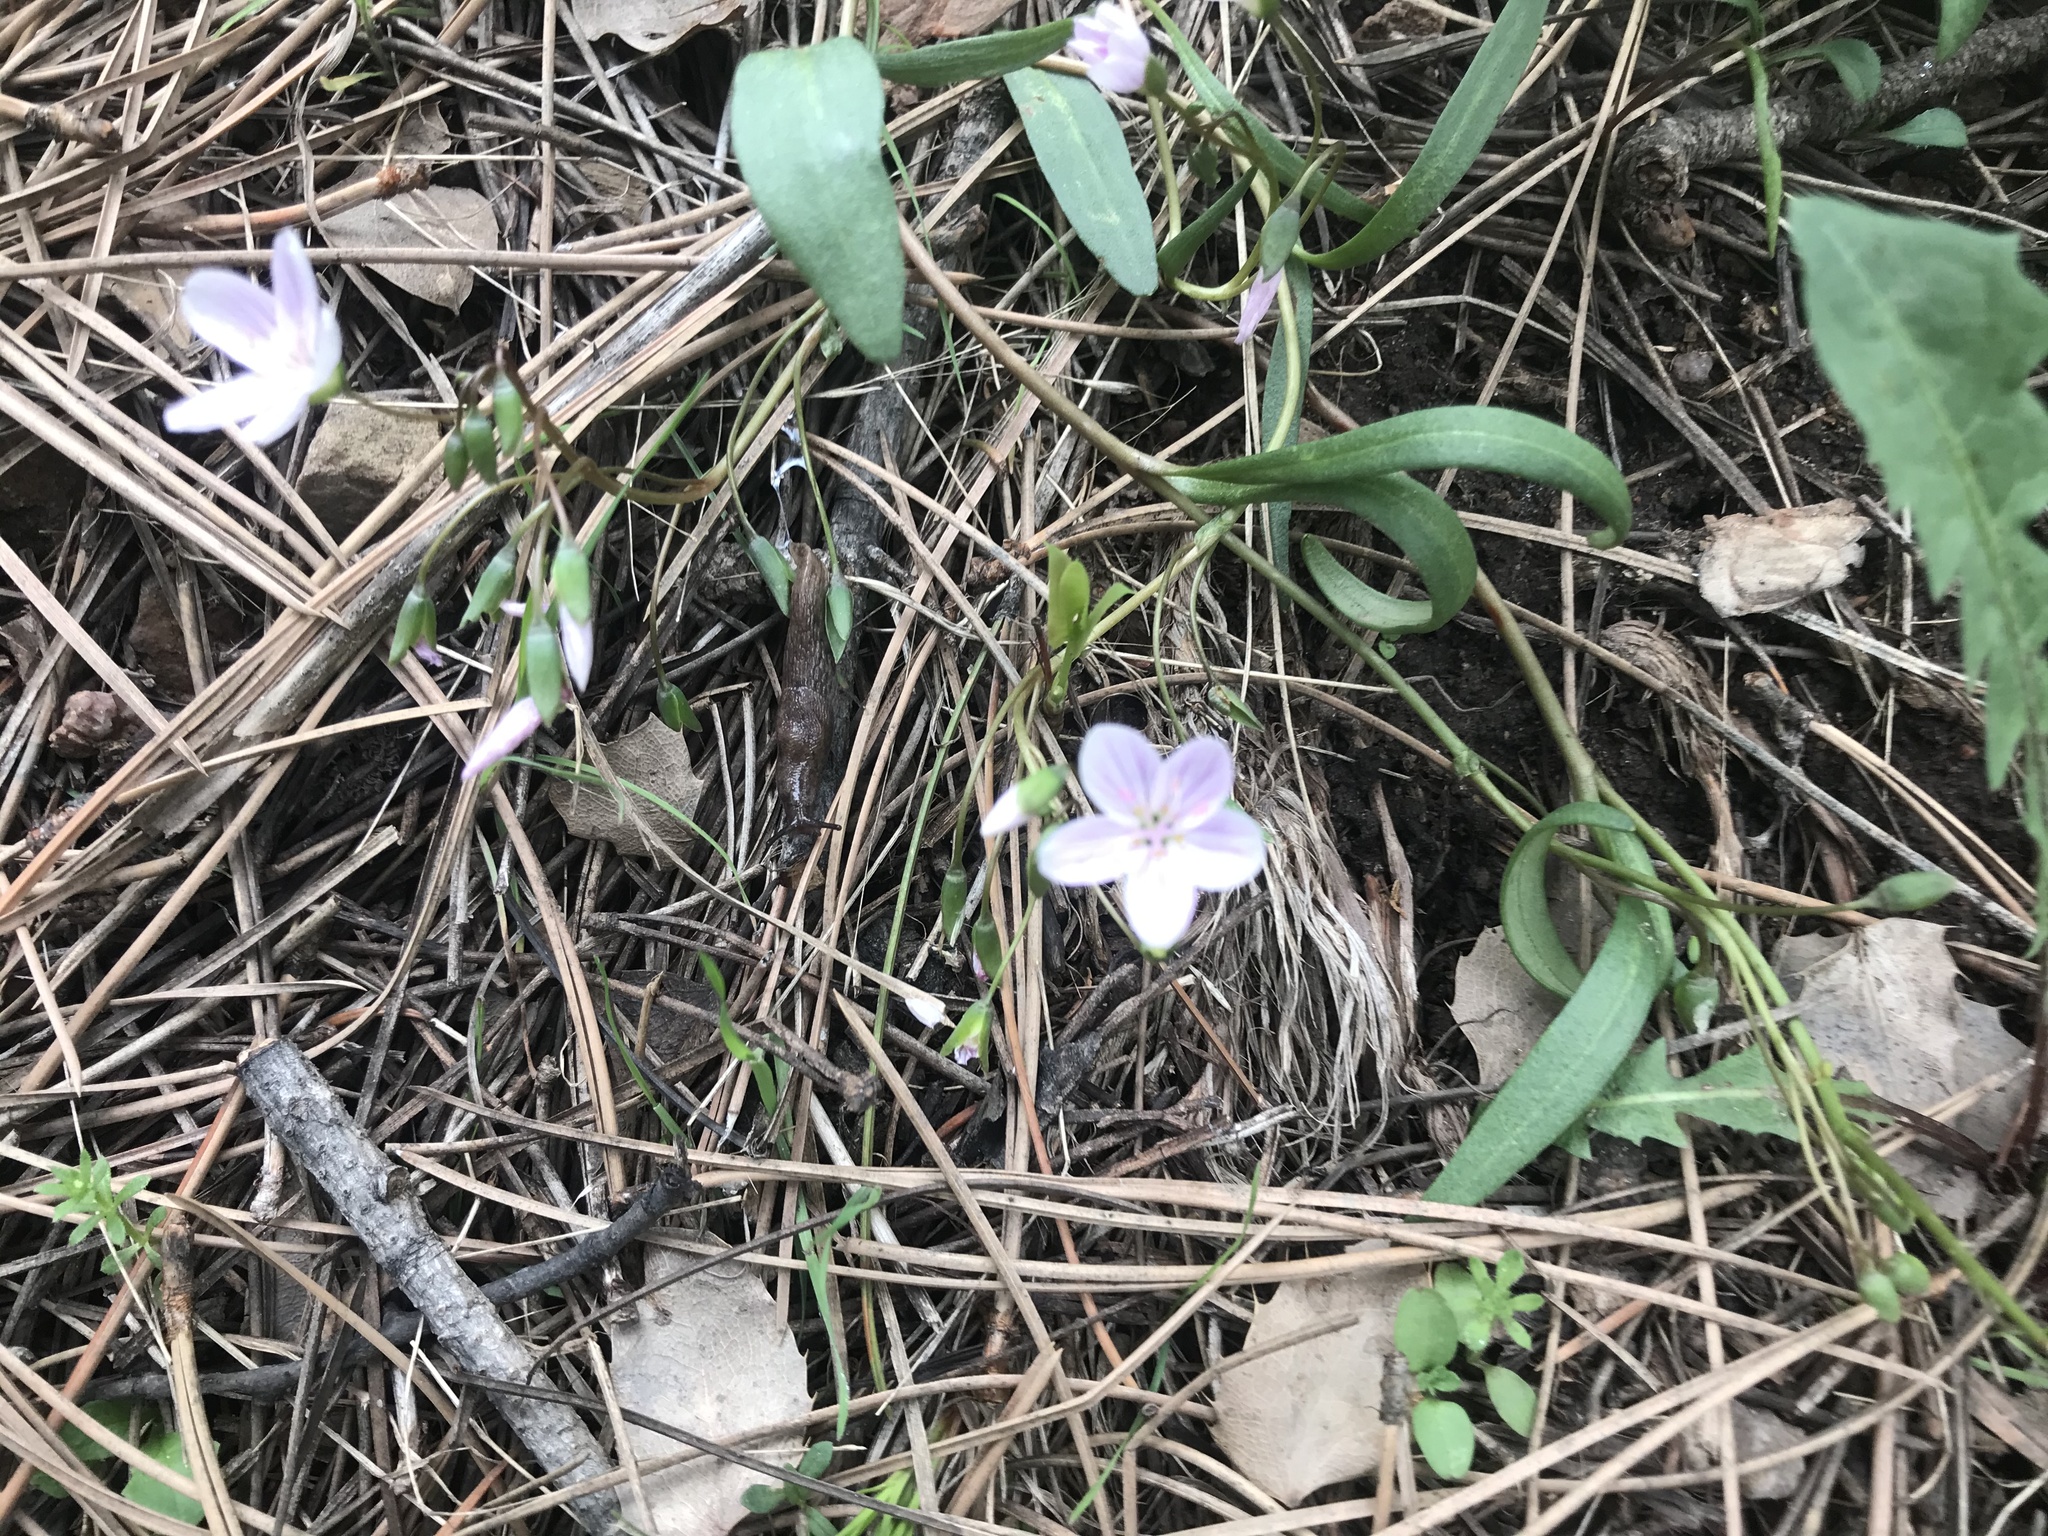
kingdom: Plantae
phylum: Tracheophyta
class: Magnoliopsida
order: Caryophyllales
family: Montiaceae
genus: Claytonia
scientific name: Claytonia rosea
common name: Rocky mountain spring-beauty
